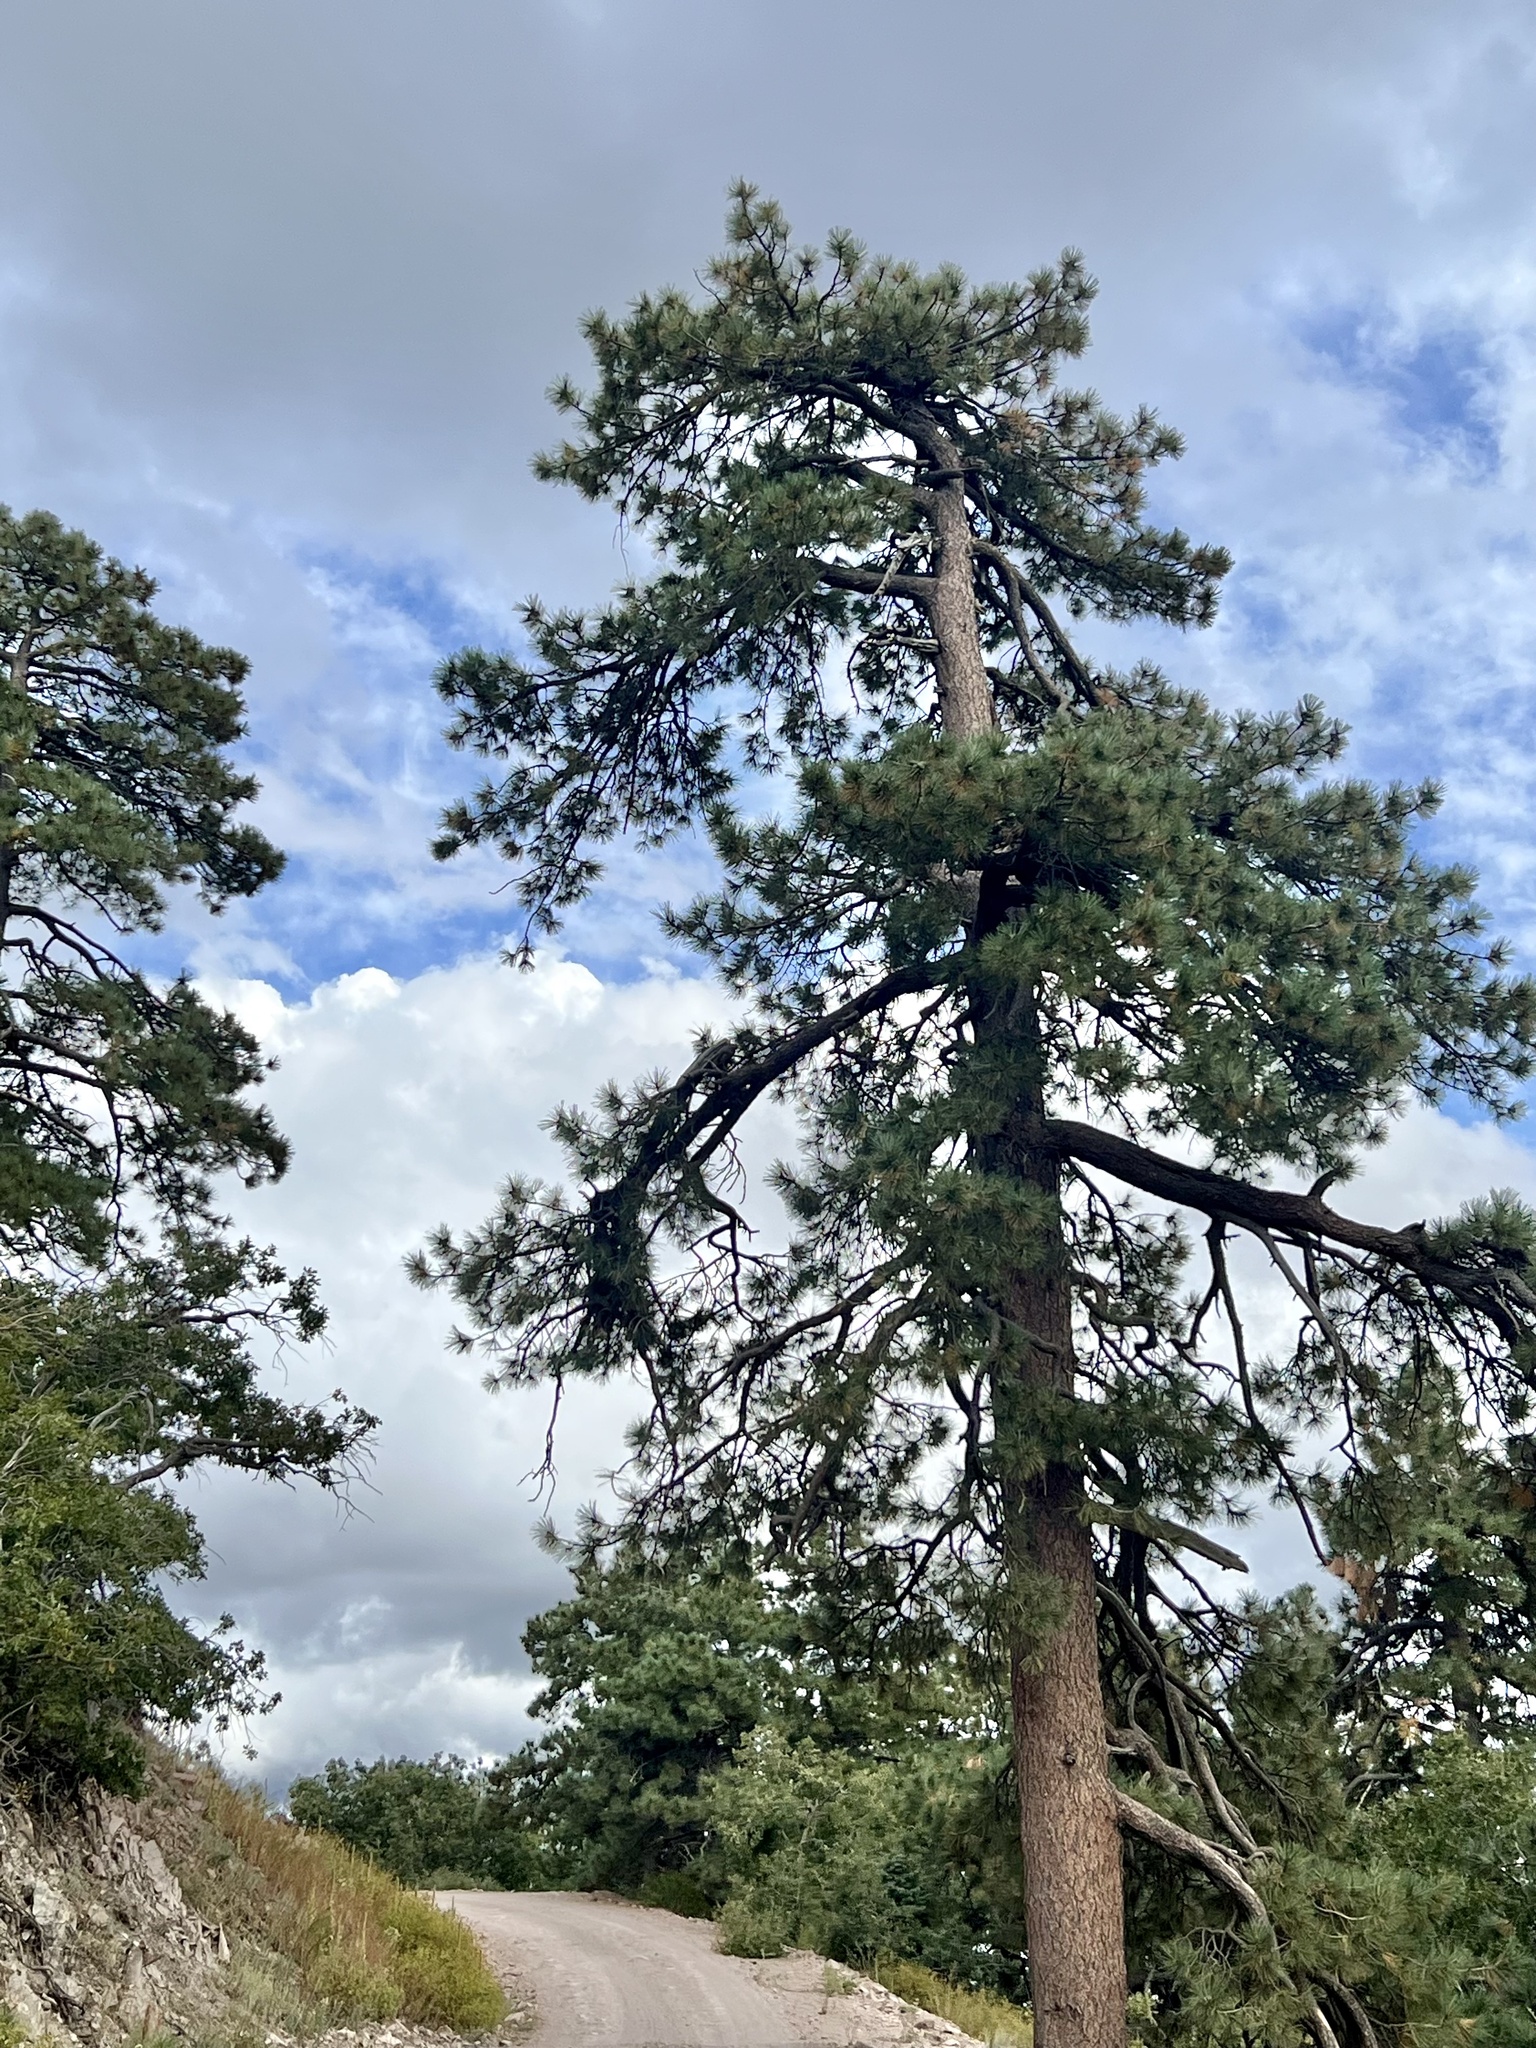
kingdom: Plantae
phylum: Tracheophyta
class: Pinopsida
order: Pinales
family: Pinaceae
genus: Pinus
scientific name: Pinus ponderosa
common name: Western yellow-pine
